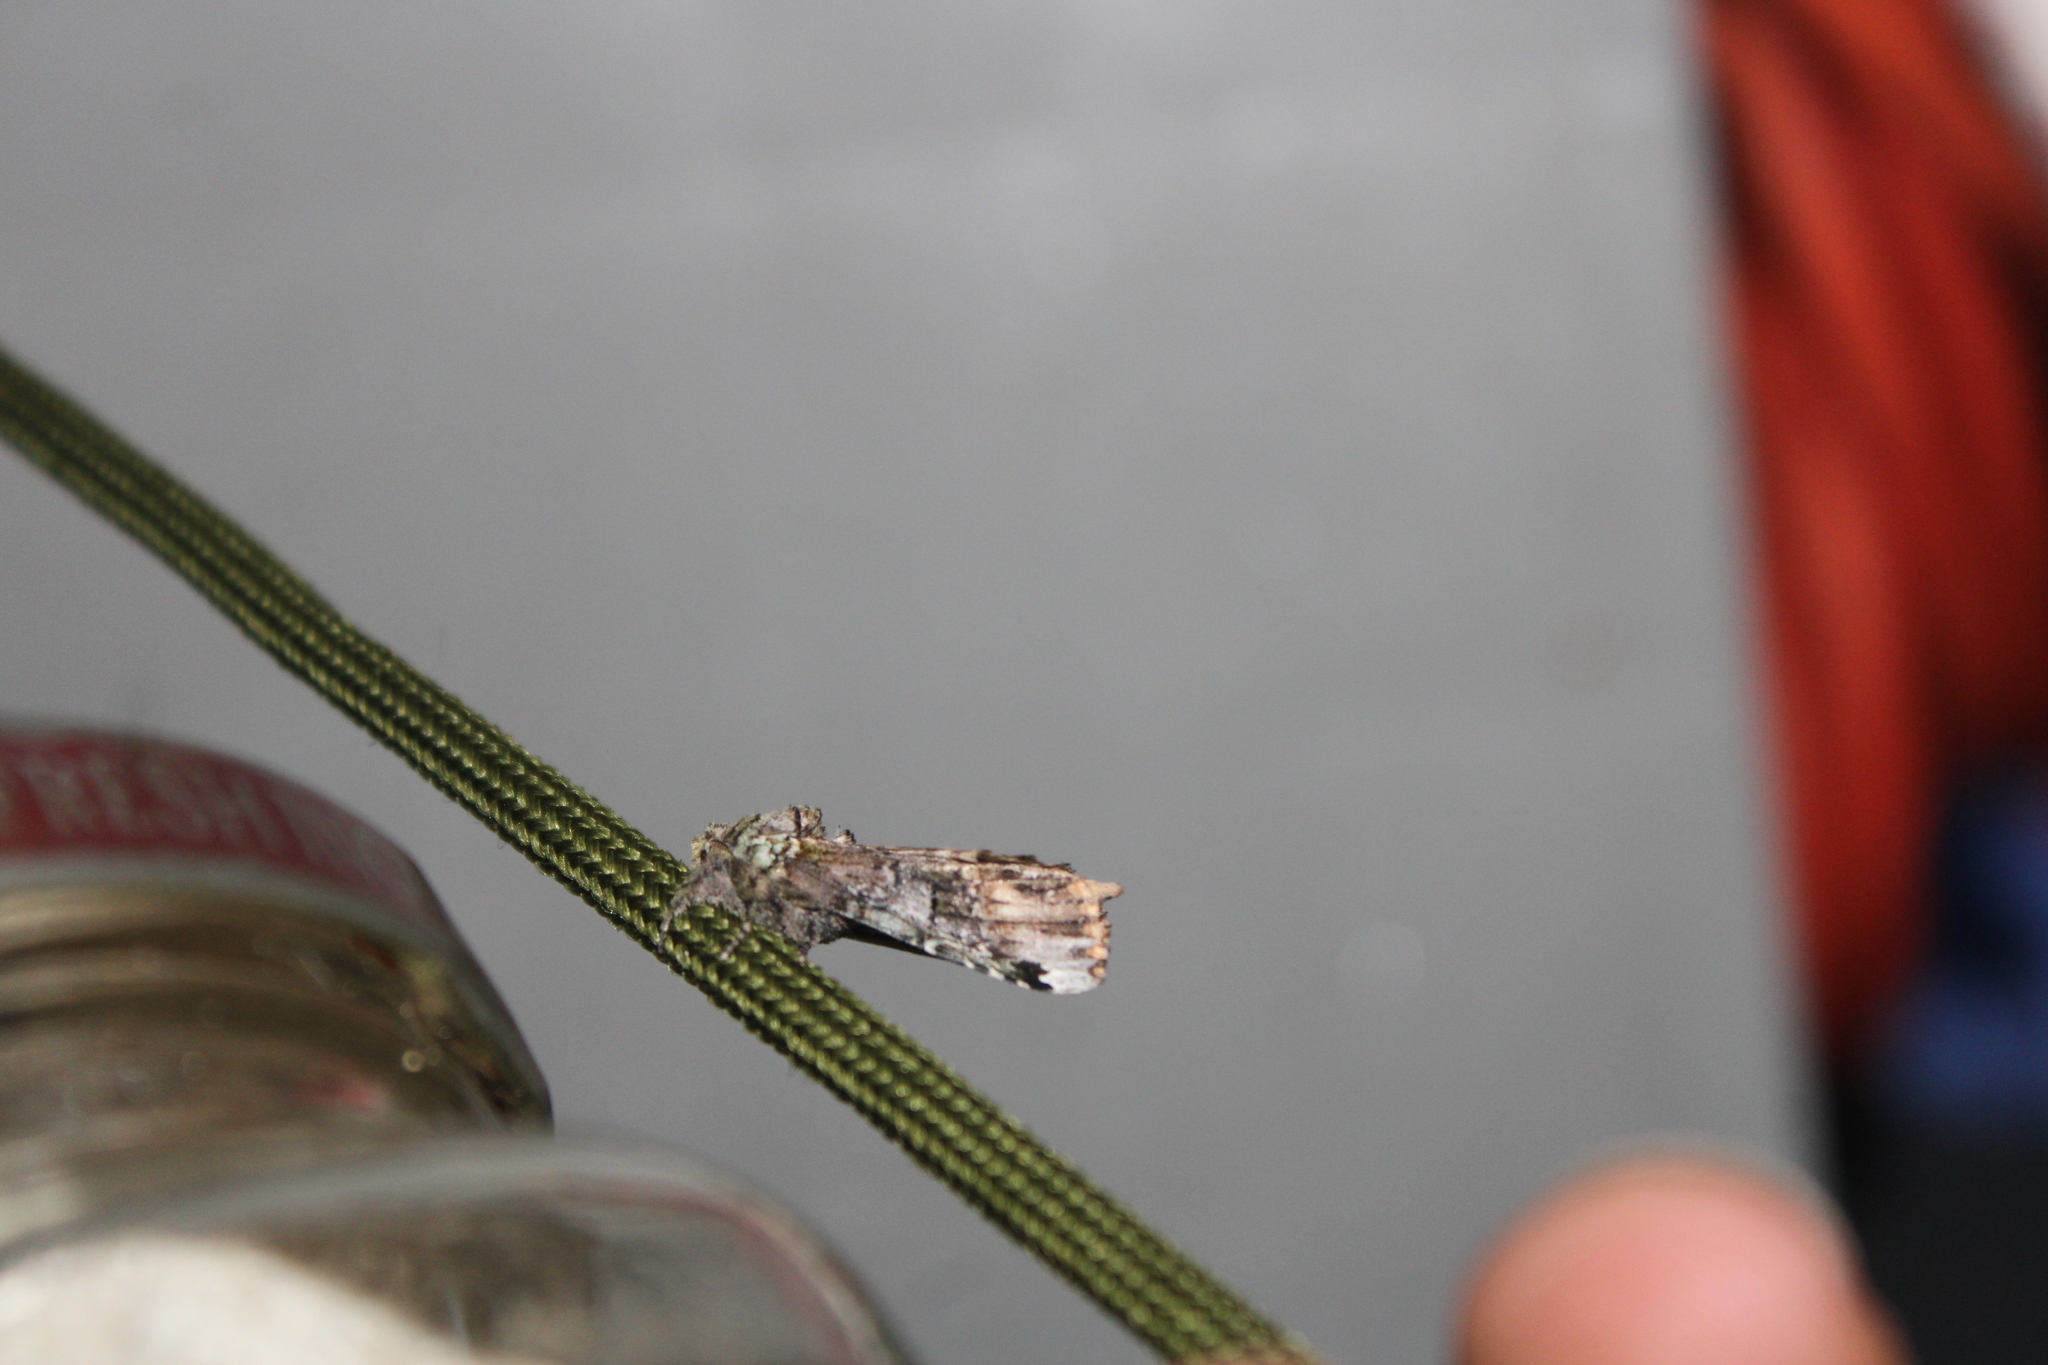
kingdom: Animalia
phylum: Arthropoda
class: Insecta
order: Lepidoptera
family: Notodontidae
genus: Schizura
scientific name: Schizura
